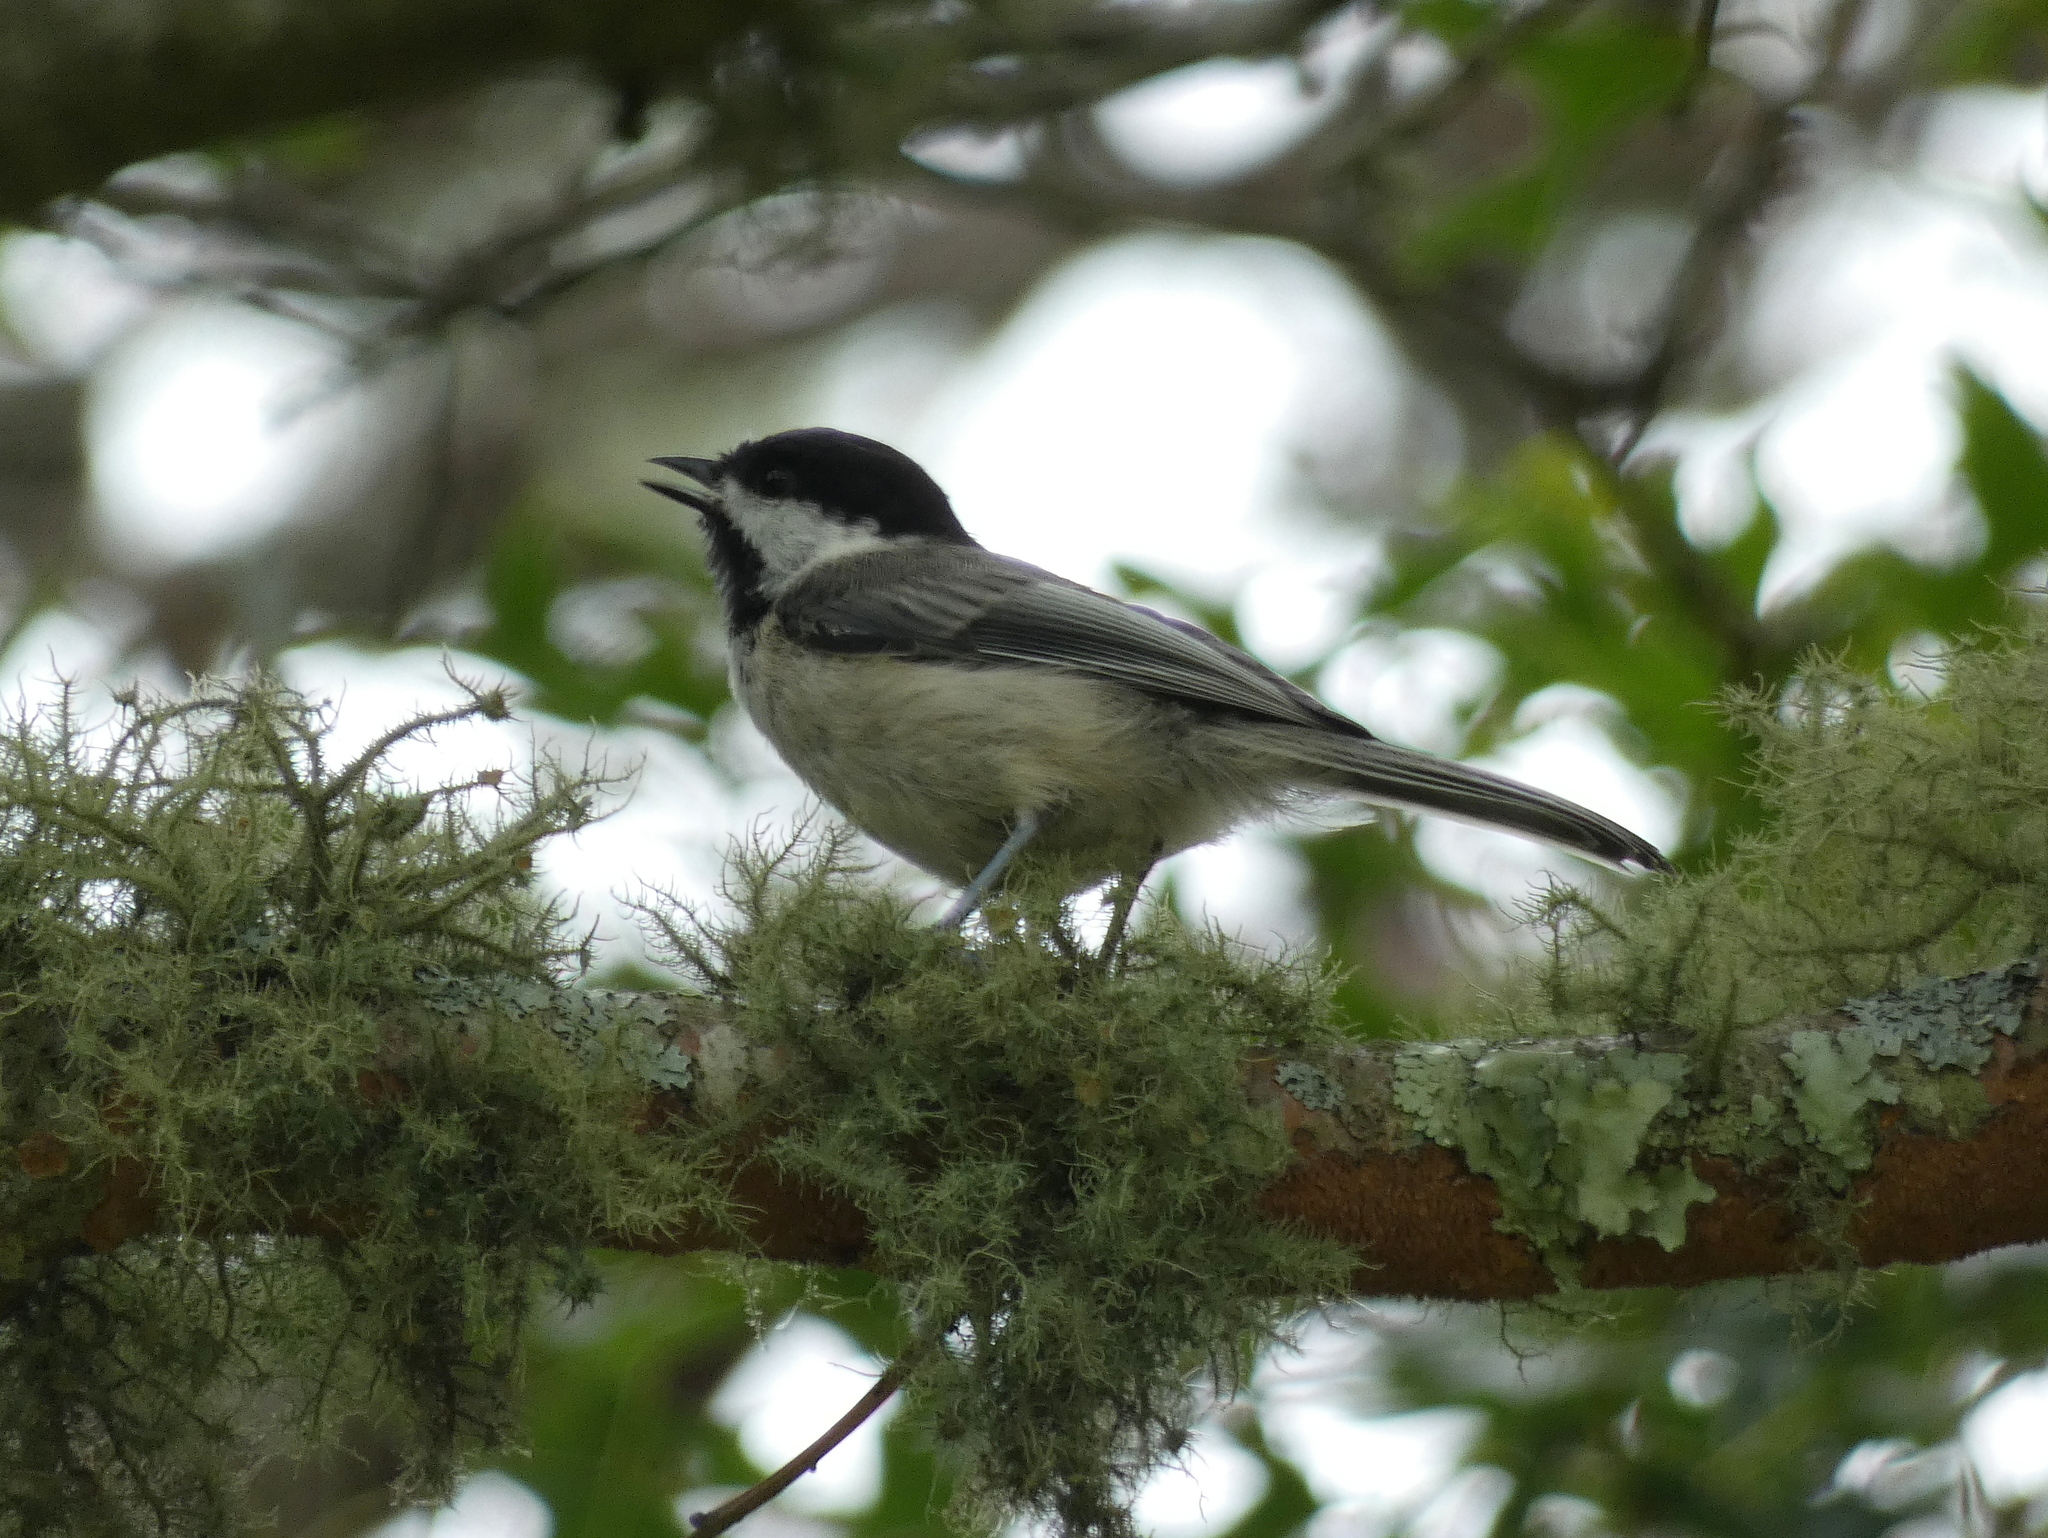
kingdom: Animalia
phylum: Chordata
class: Aves
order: Passeriformes
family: Paridae
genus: Poecile
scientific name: Poecile atricapillus
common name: Black-capped chickadee
